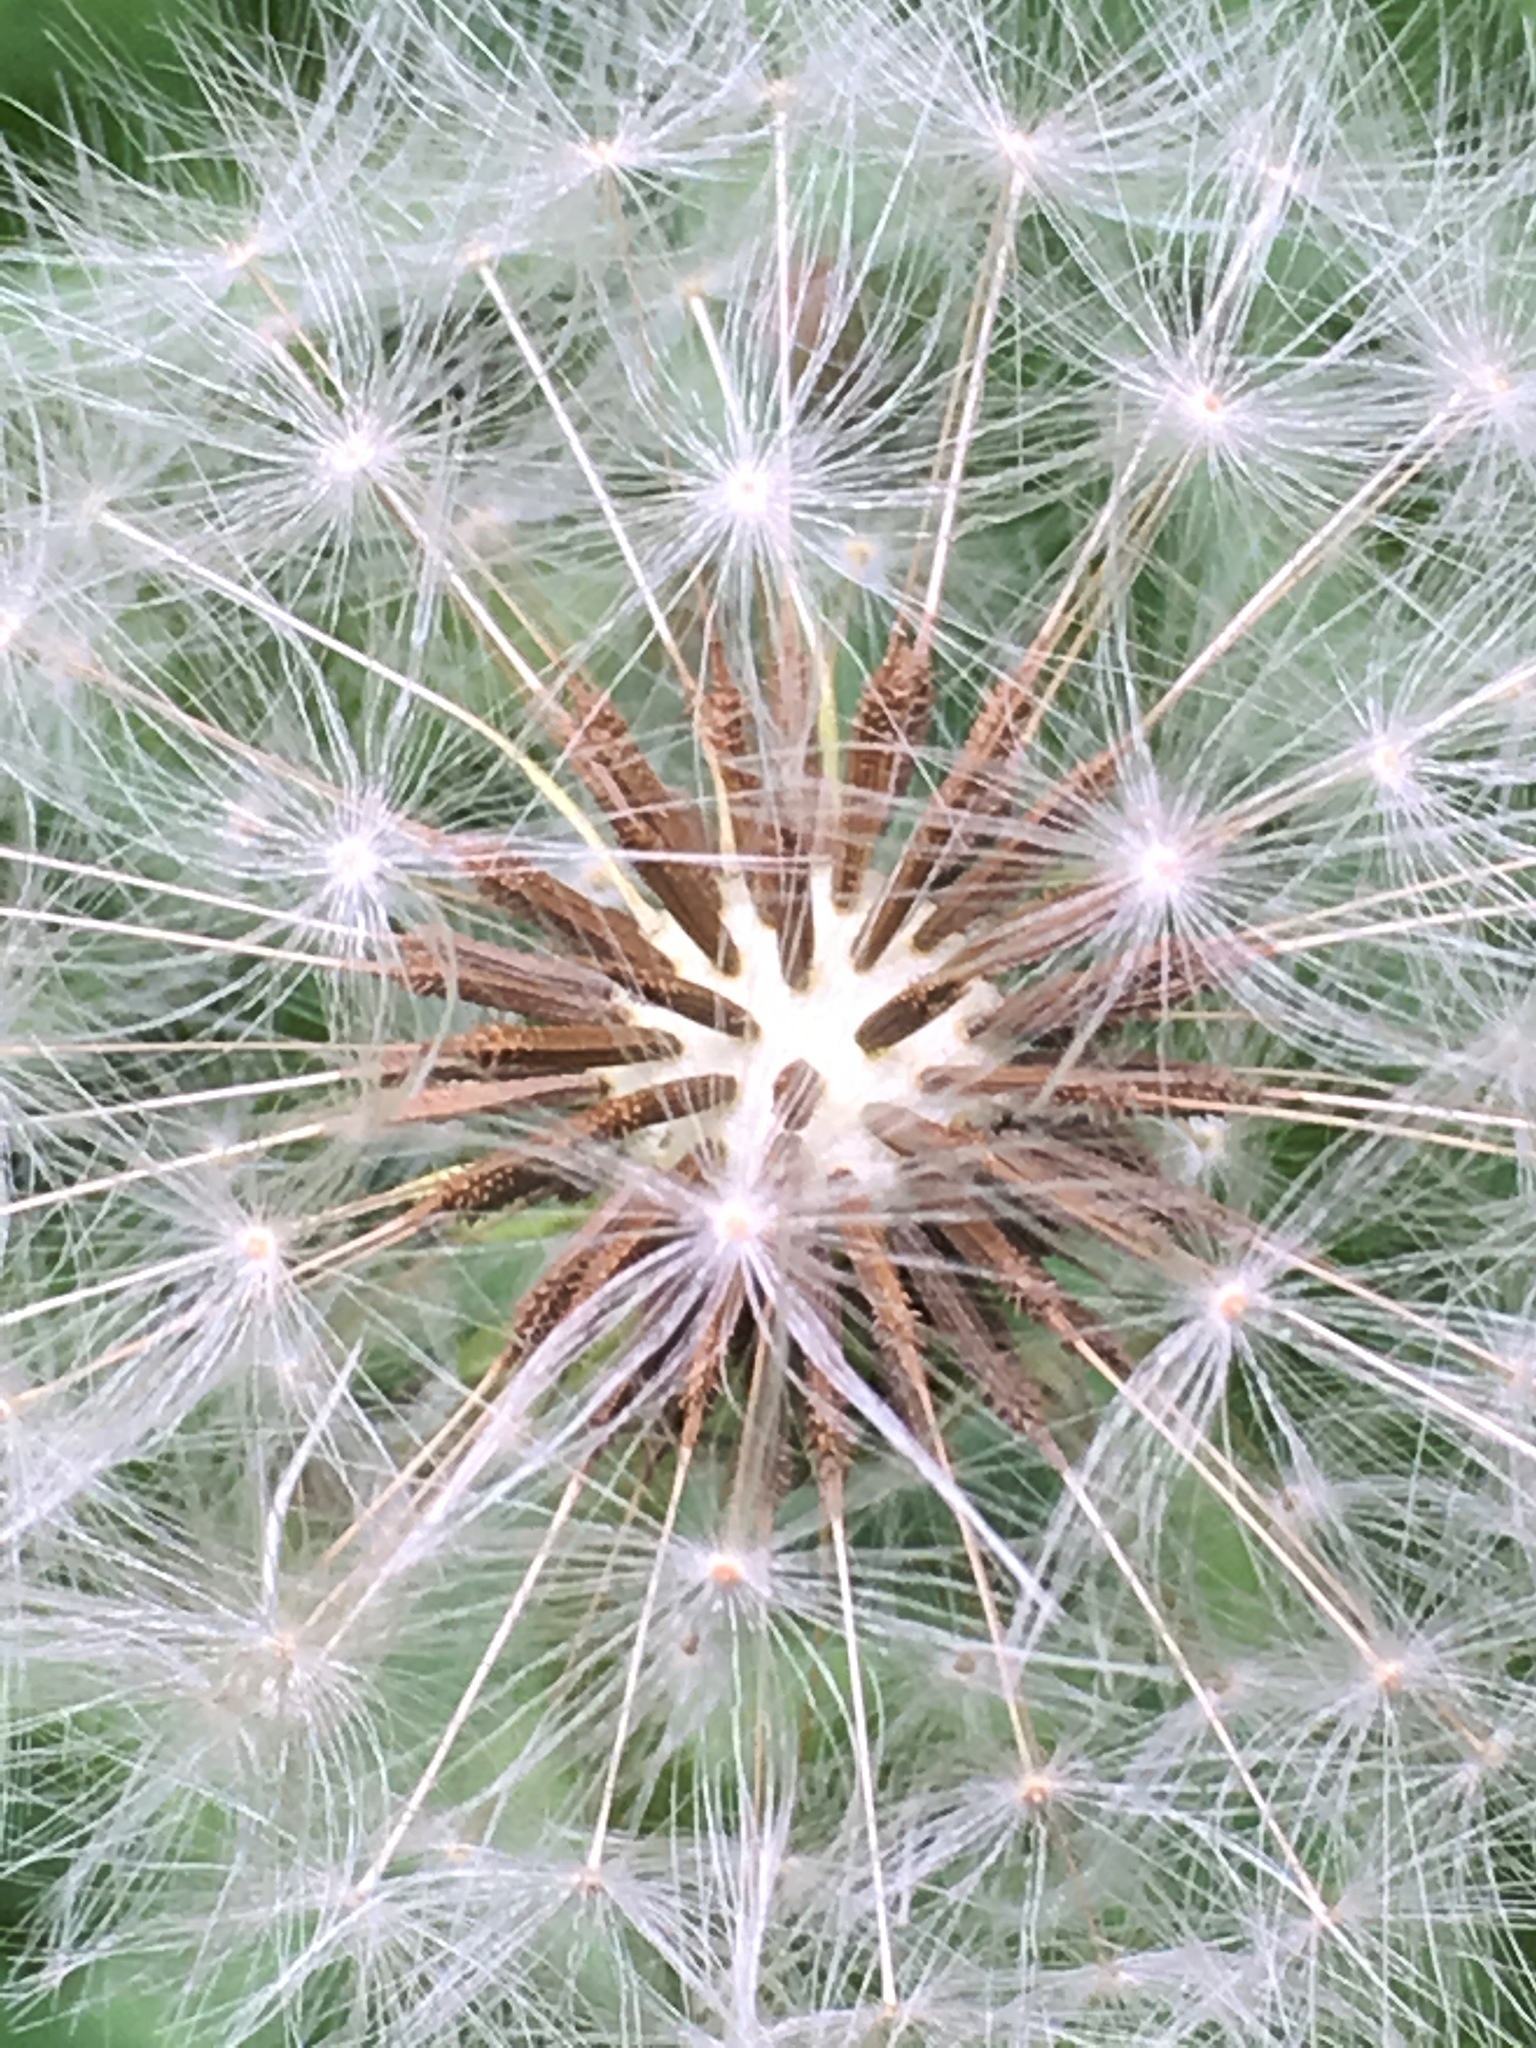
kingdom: Plantae
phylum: Tracheophyta
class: Magnoliopsida
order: Asterales
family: Asteraceae
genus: Taraxacum
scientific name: Taraxacum officinale
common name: Common dandelion
